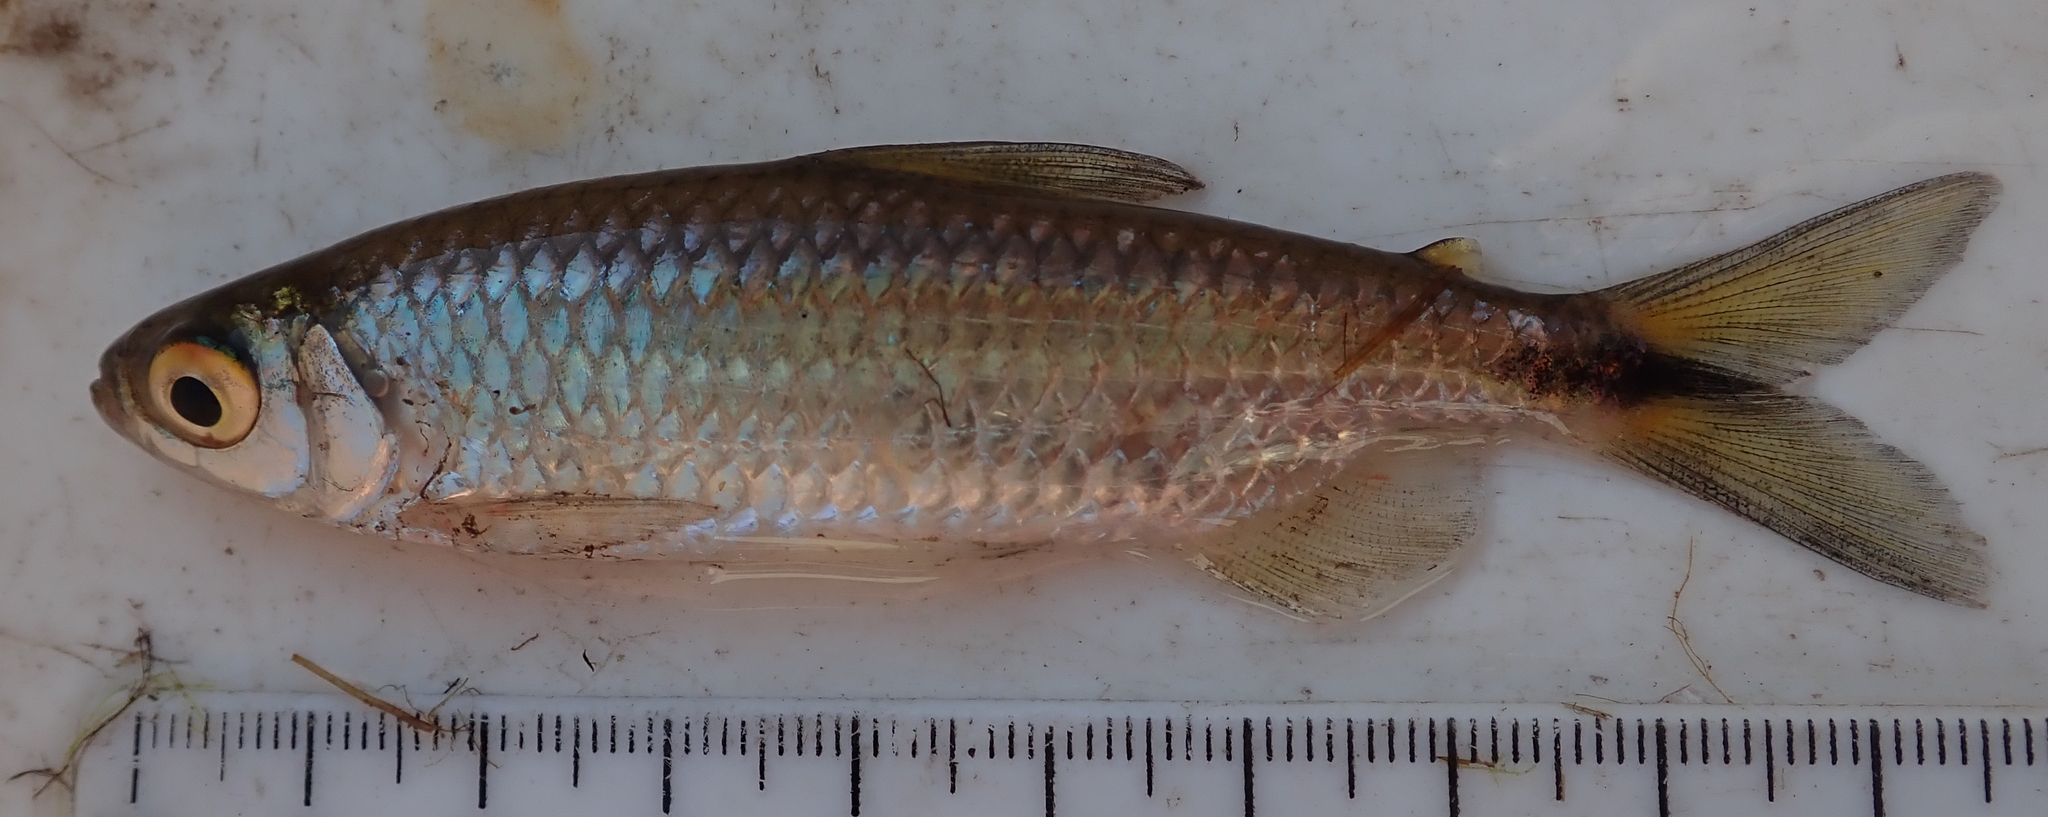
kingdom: Animalia
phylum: Chordata
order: Characiformes
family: Alestidae
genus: Alestes
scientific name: Alestes
